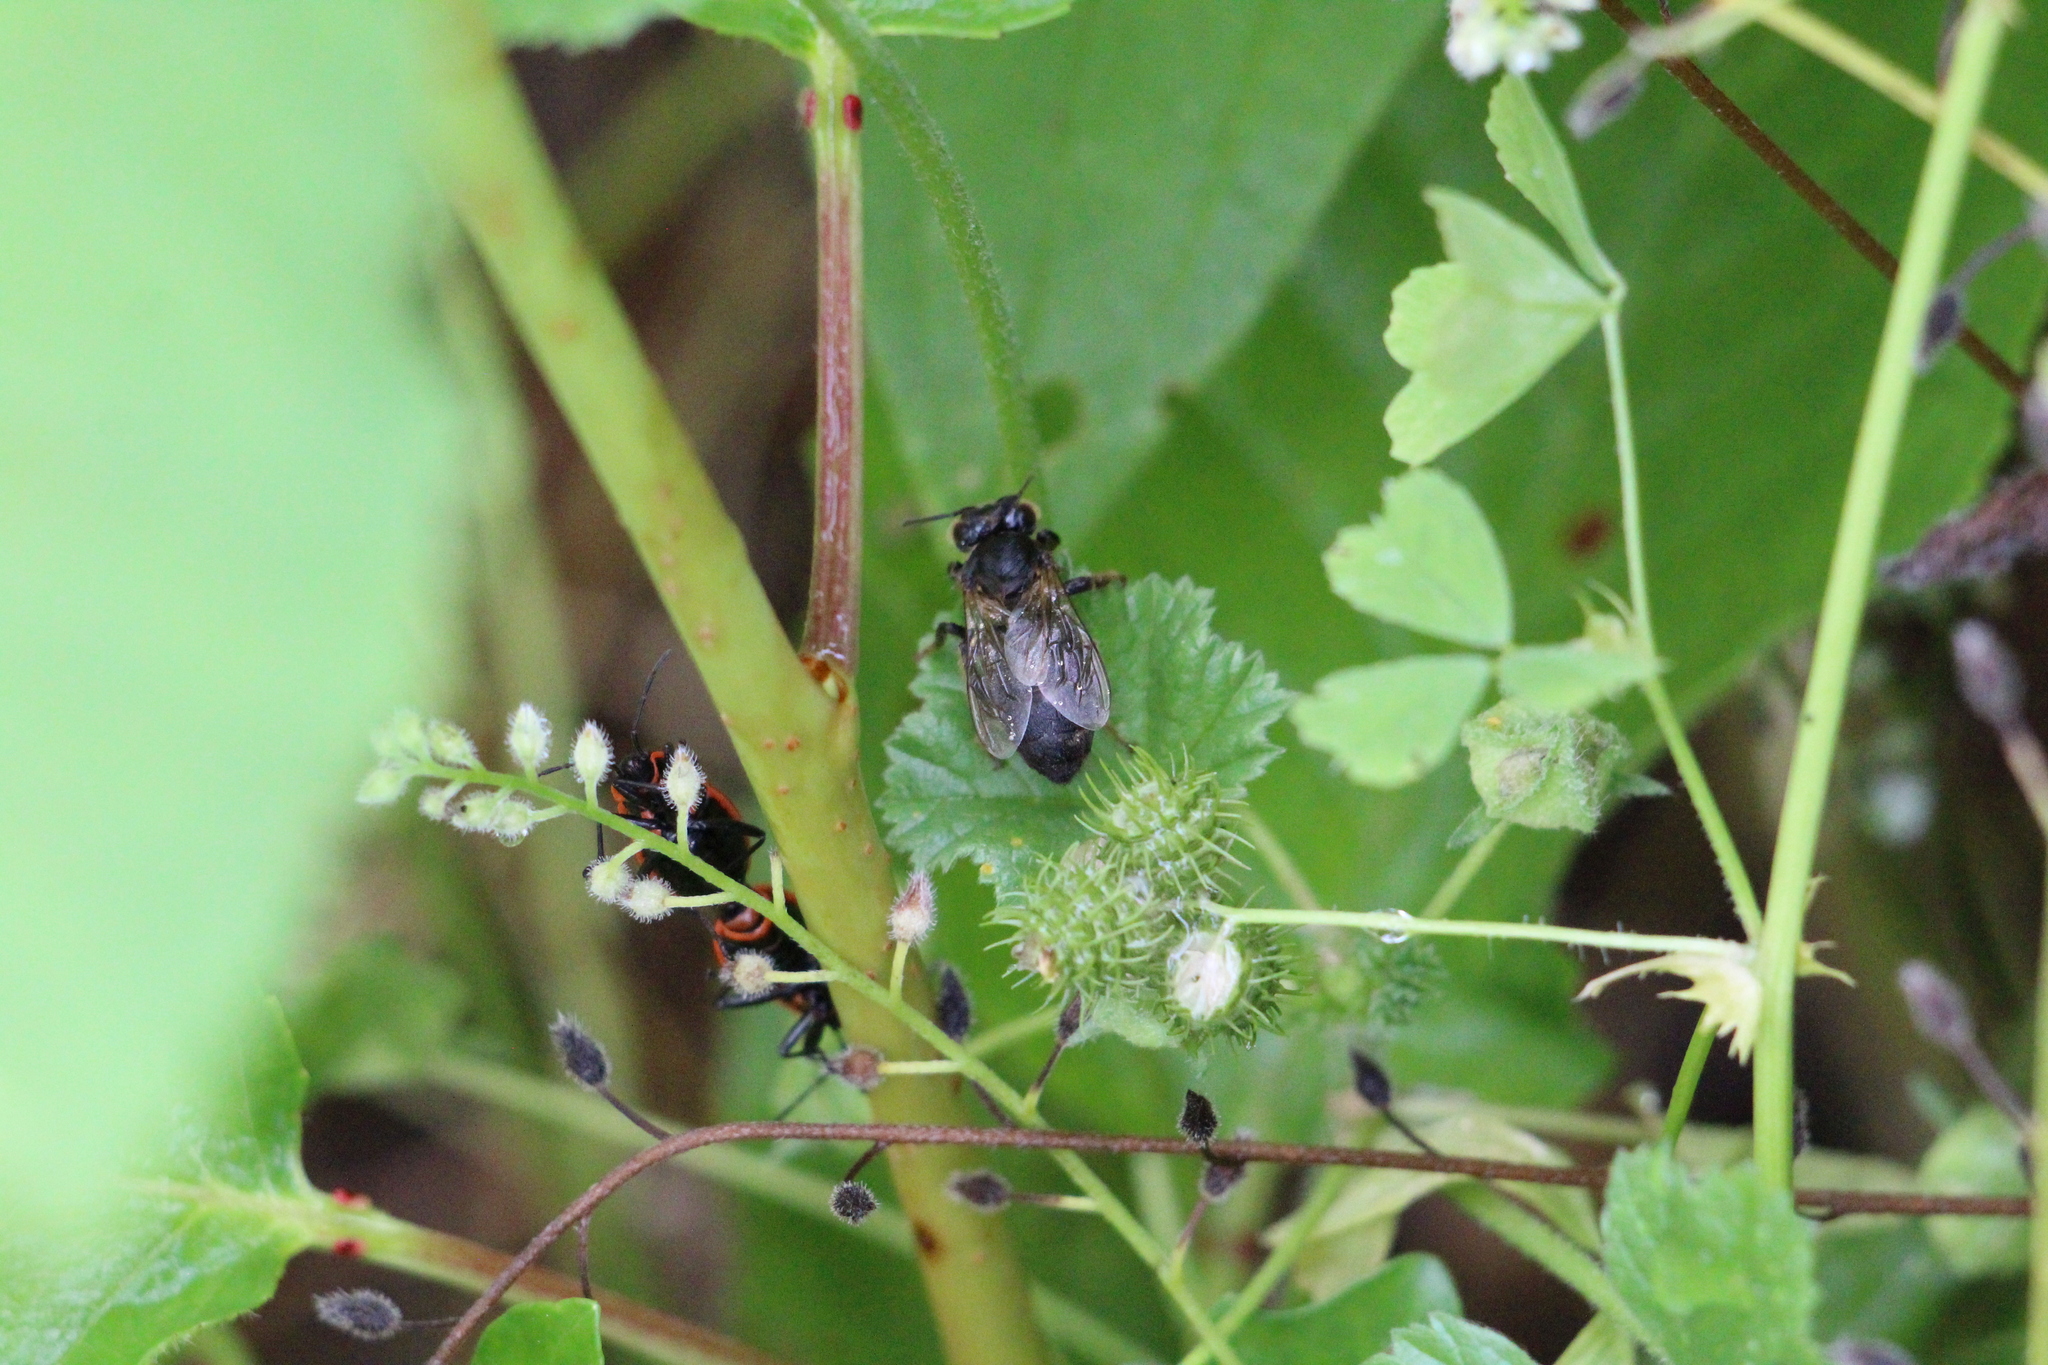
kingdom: Animalia
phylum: Arthropoda
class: Insecta
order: Hymenoptera
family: Apidae
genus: Apis
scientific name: Apis mellifera
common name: Honey bee
